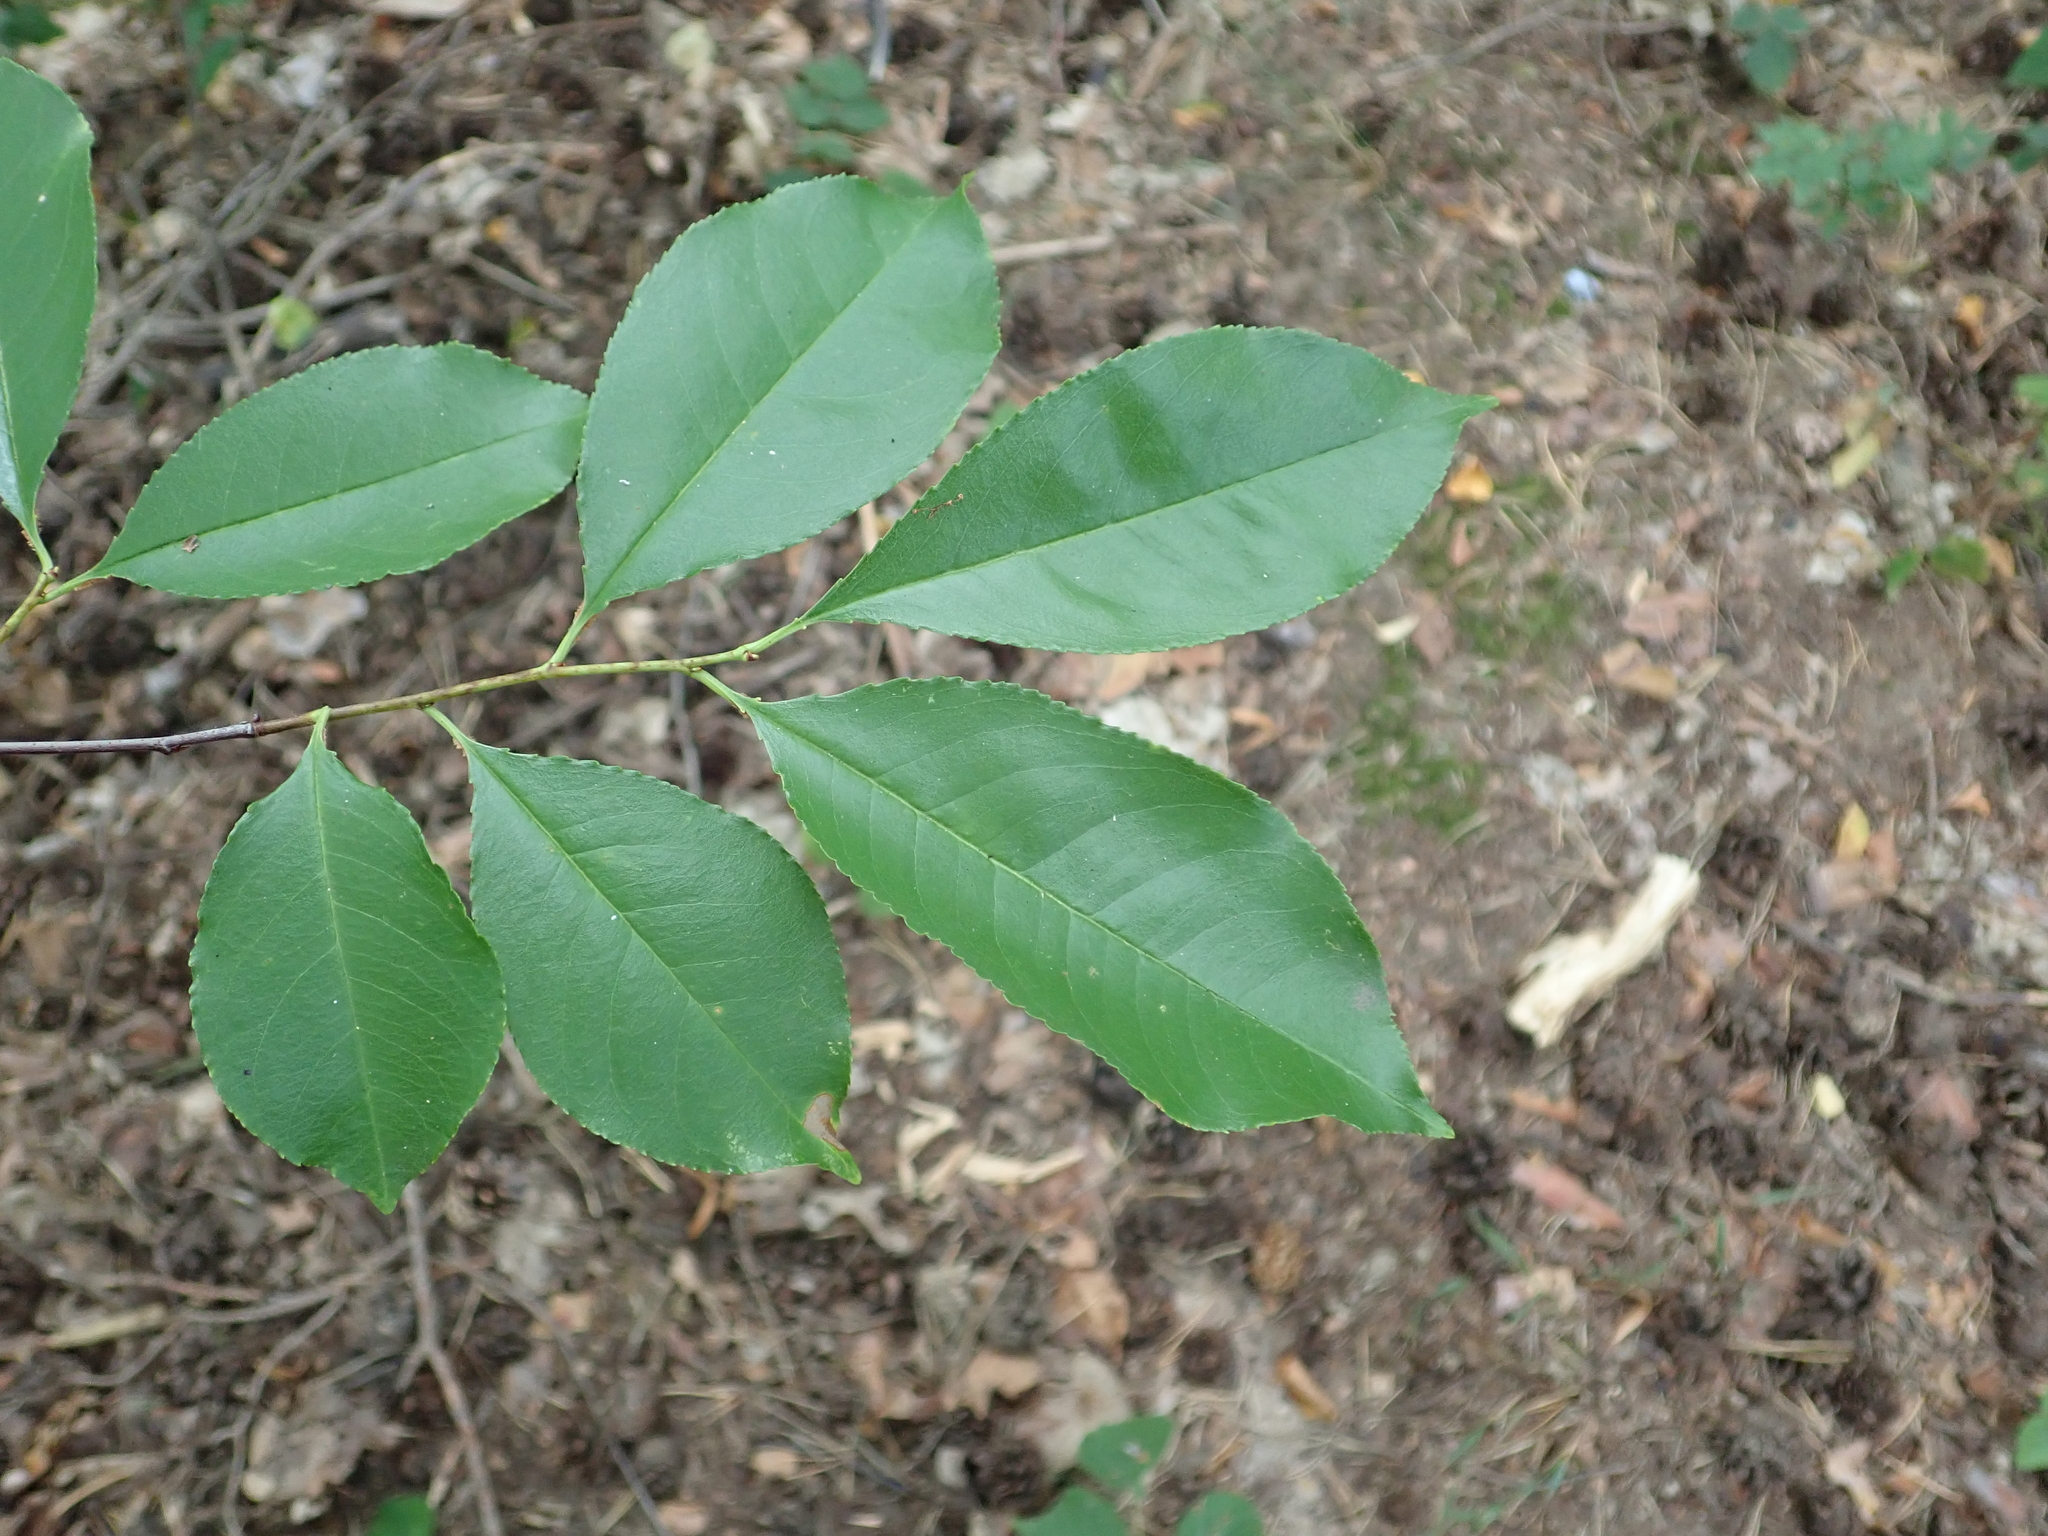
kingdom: Plantae
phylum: Tracheophyta
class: Magnoliopsida
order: Rosales
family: Rosaceae
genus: Prunus
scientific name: Prunus serotina
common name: Black cherry
